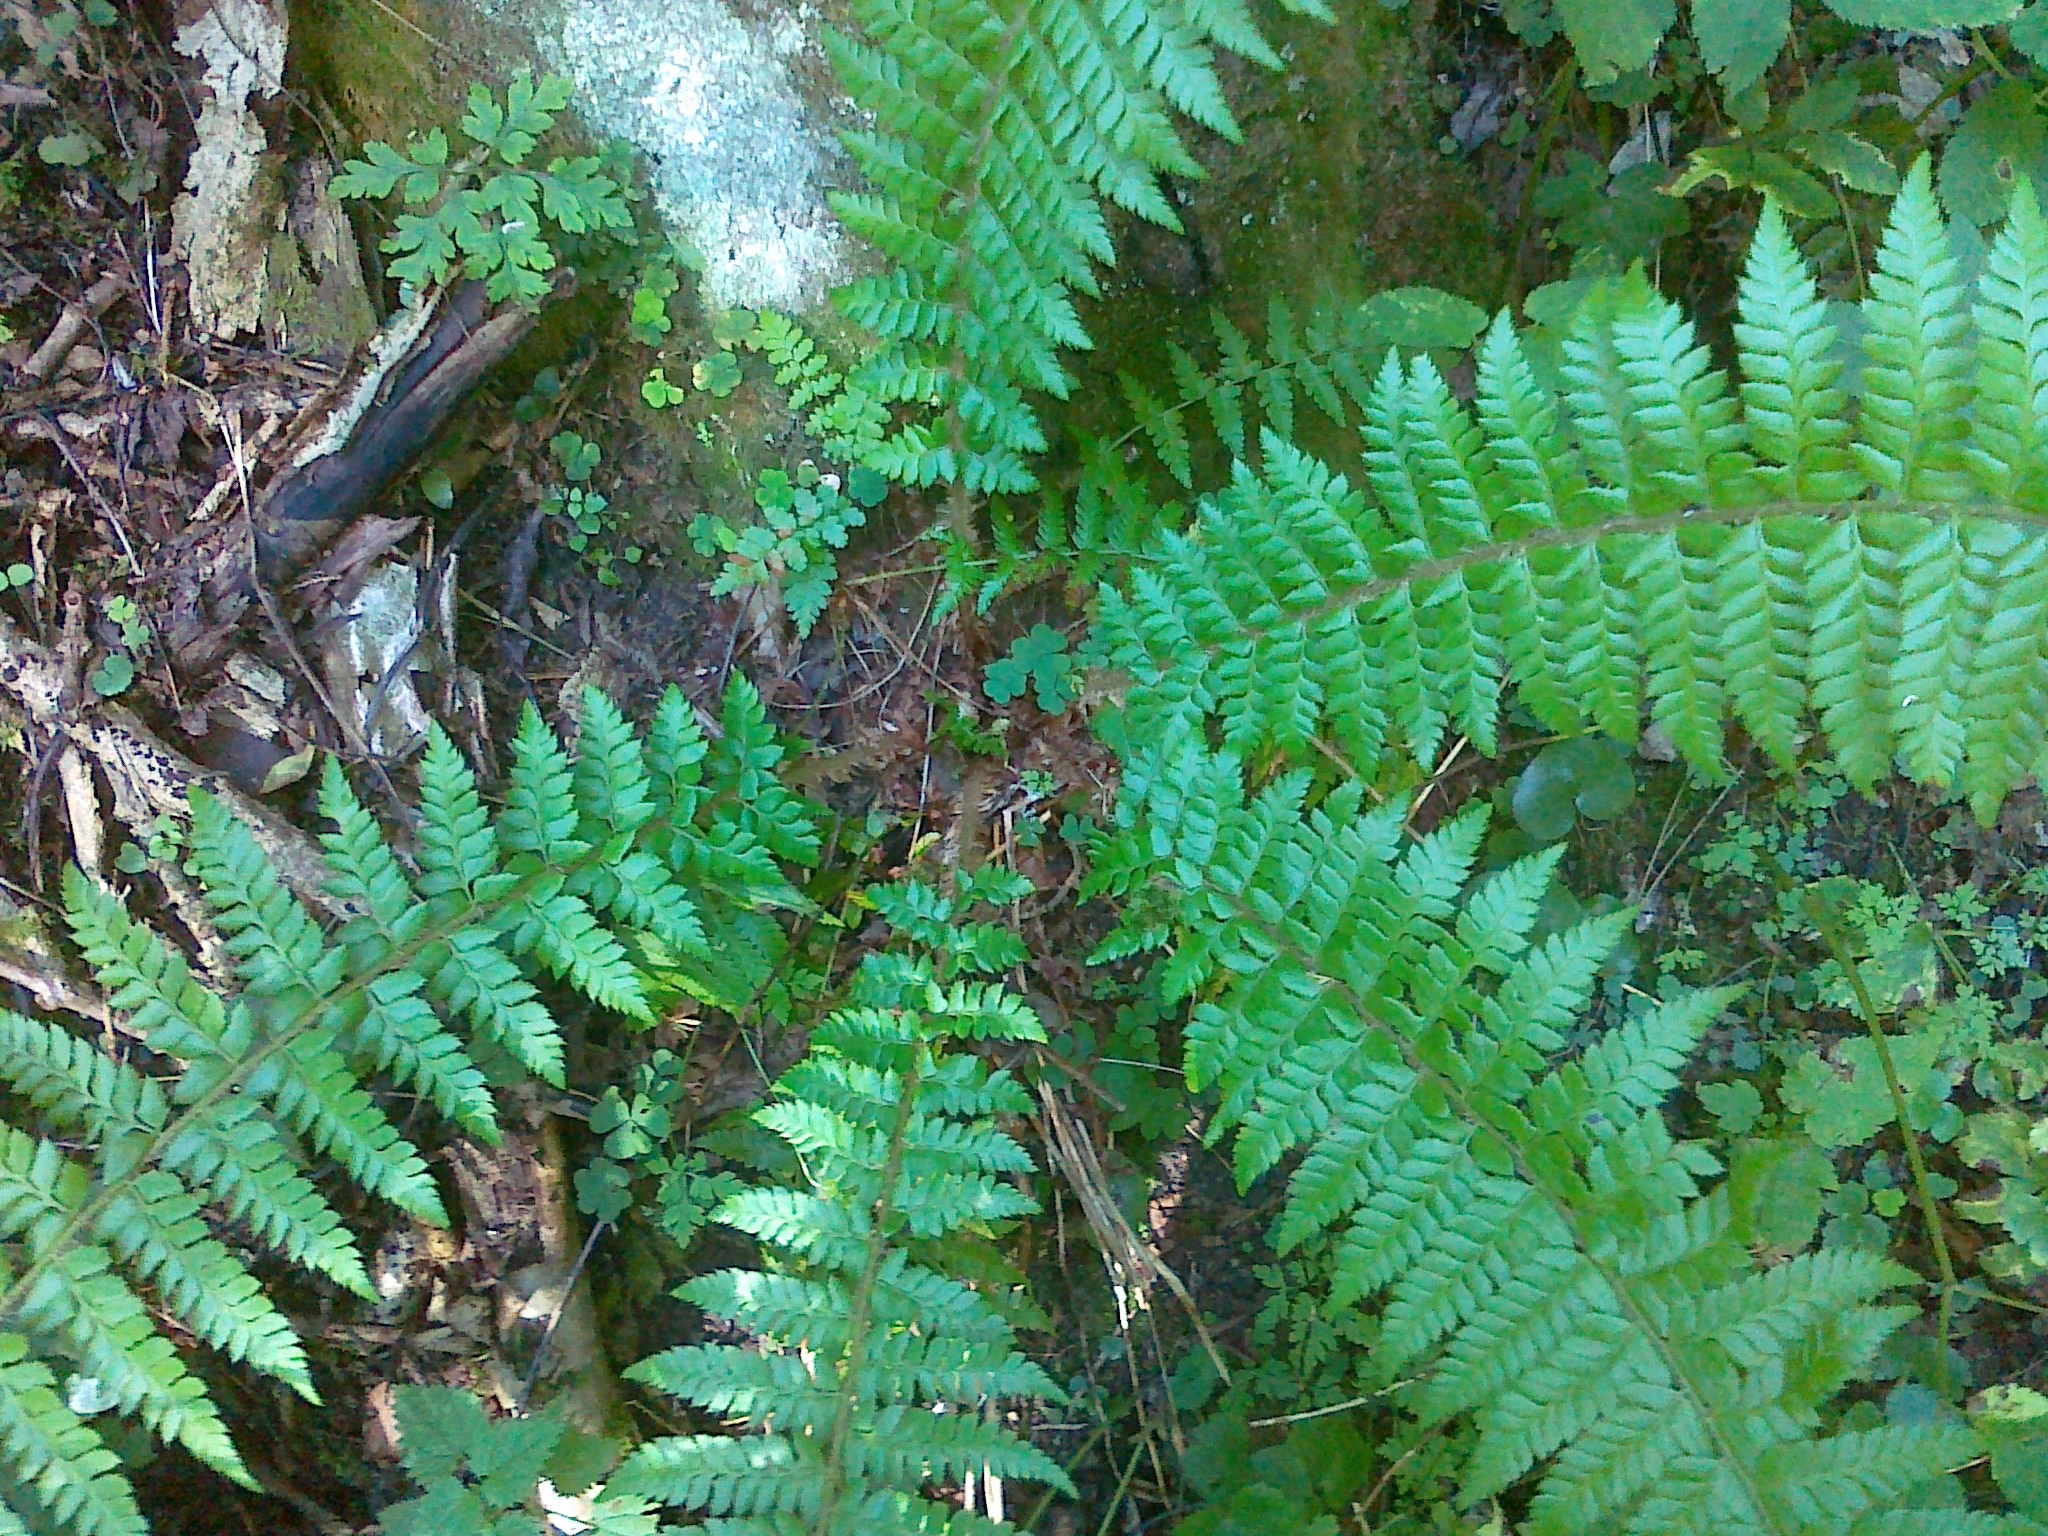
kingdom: Plantae
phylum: Tracheophyta
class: Polypodiopsida
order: Polypodiales
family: Dryopteridaceae
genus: Polystichum
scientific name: Polystichum luerssenii
